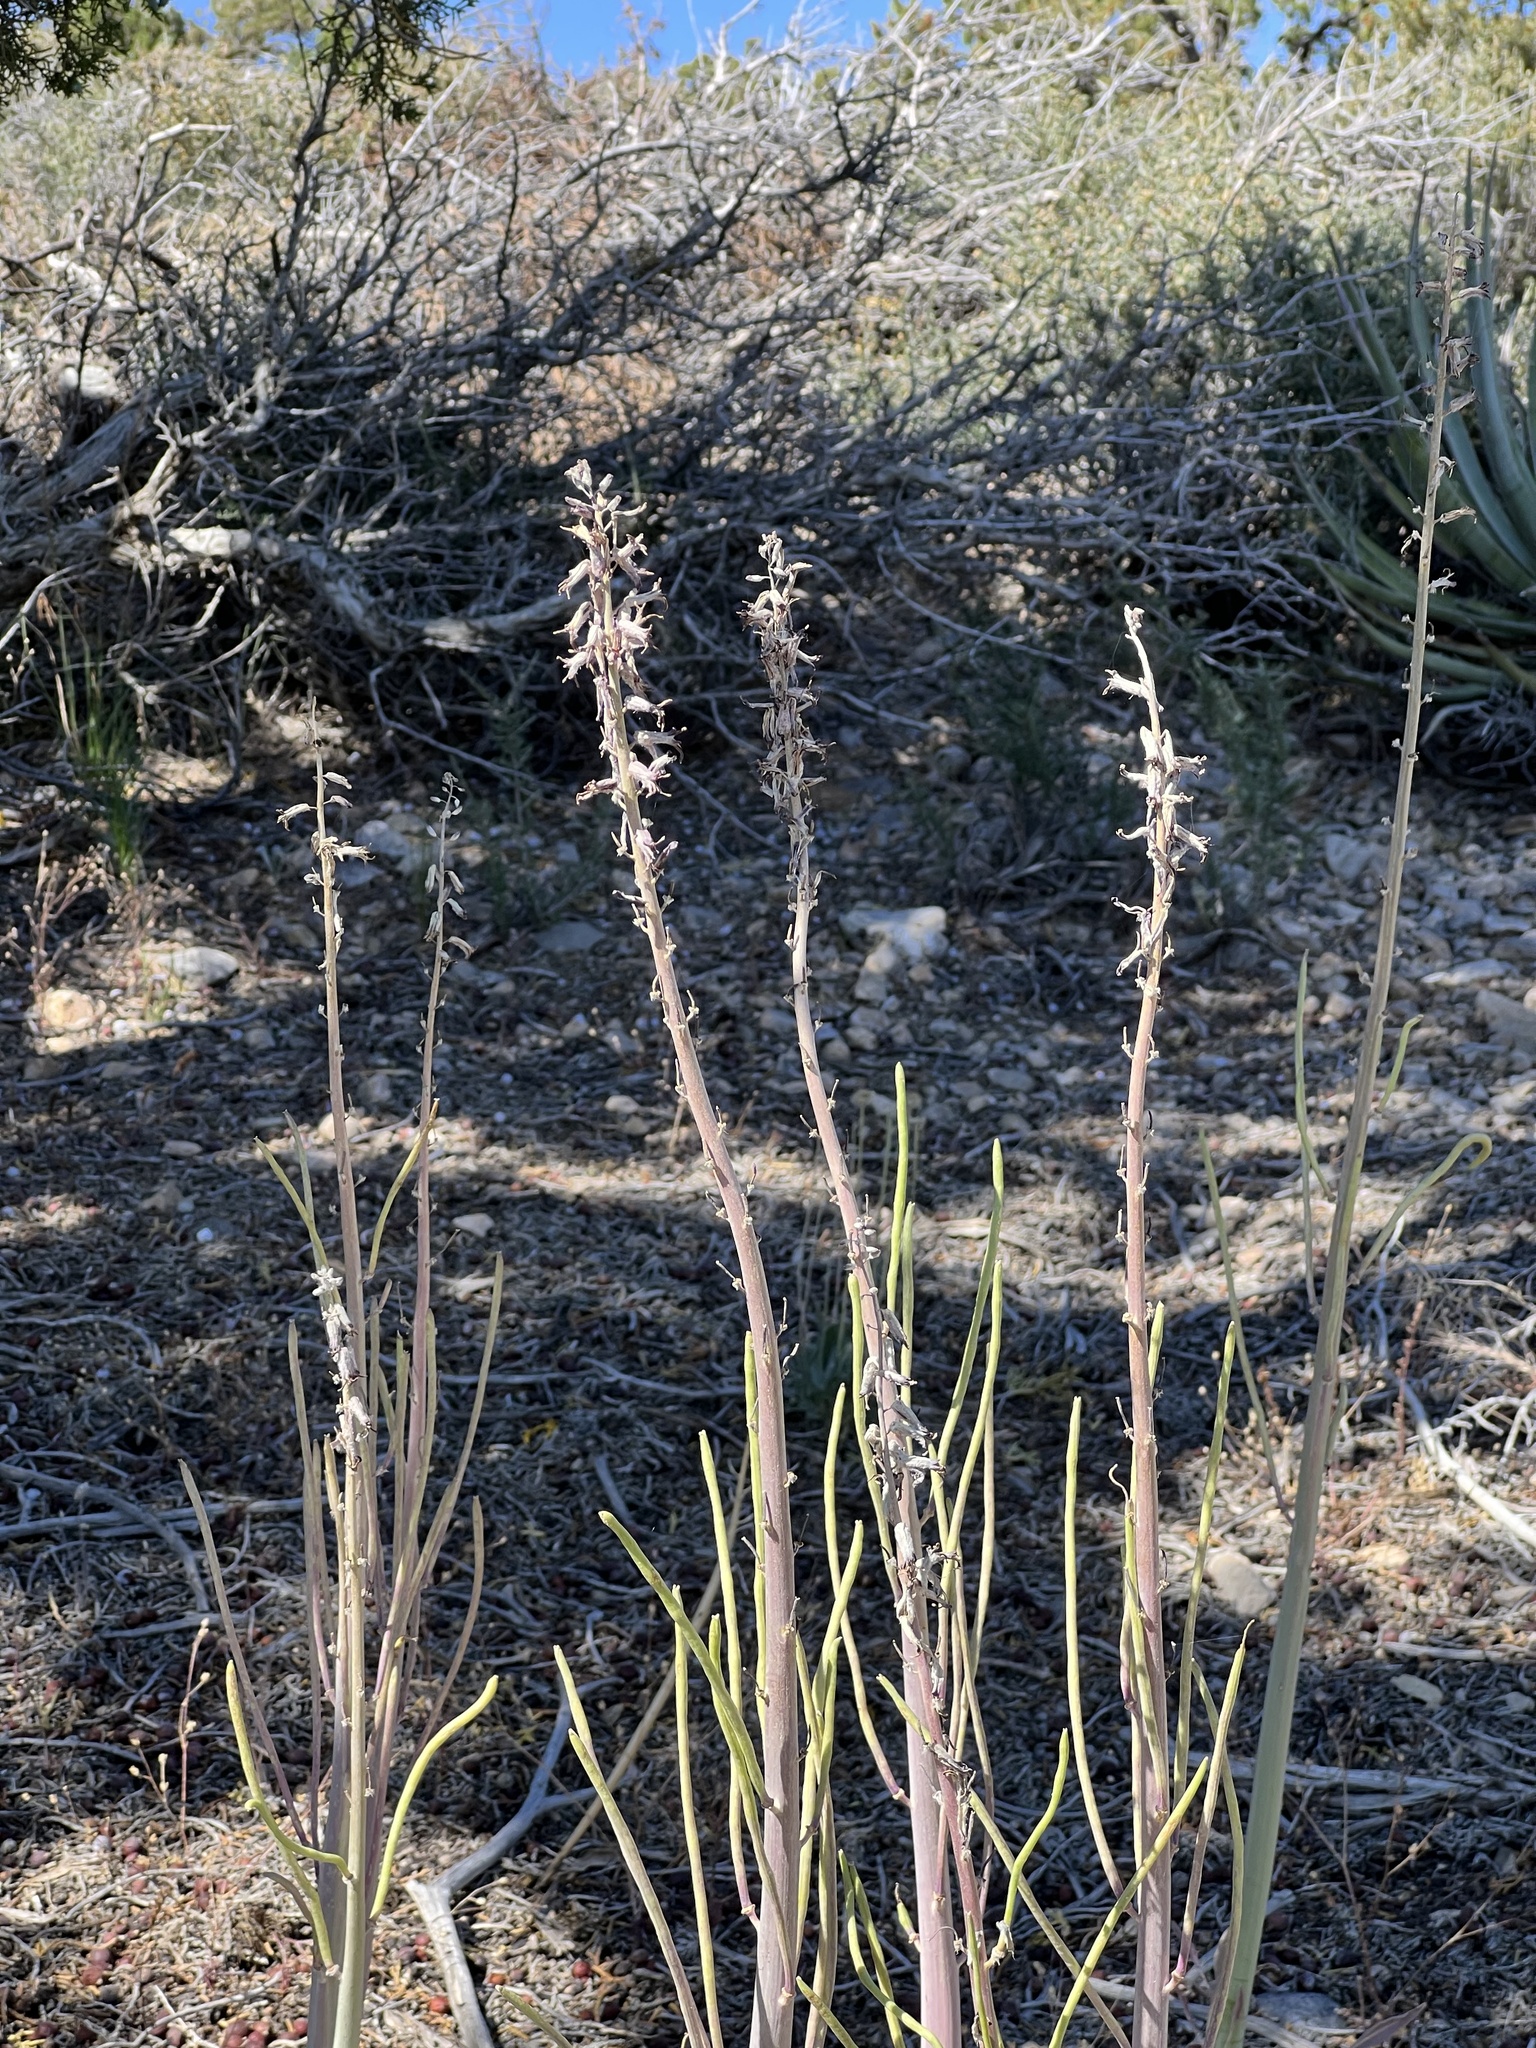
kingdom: Plantae
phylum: Tracheophyta
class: Magnoliopsida
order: Brassicales
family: Brassicaceae
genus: Streptanthus
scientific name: Streptanthus crassicaulis
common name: Thick-stem wild cabbage
